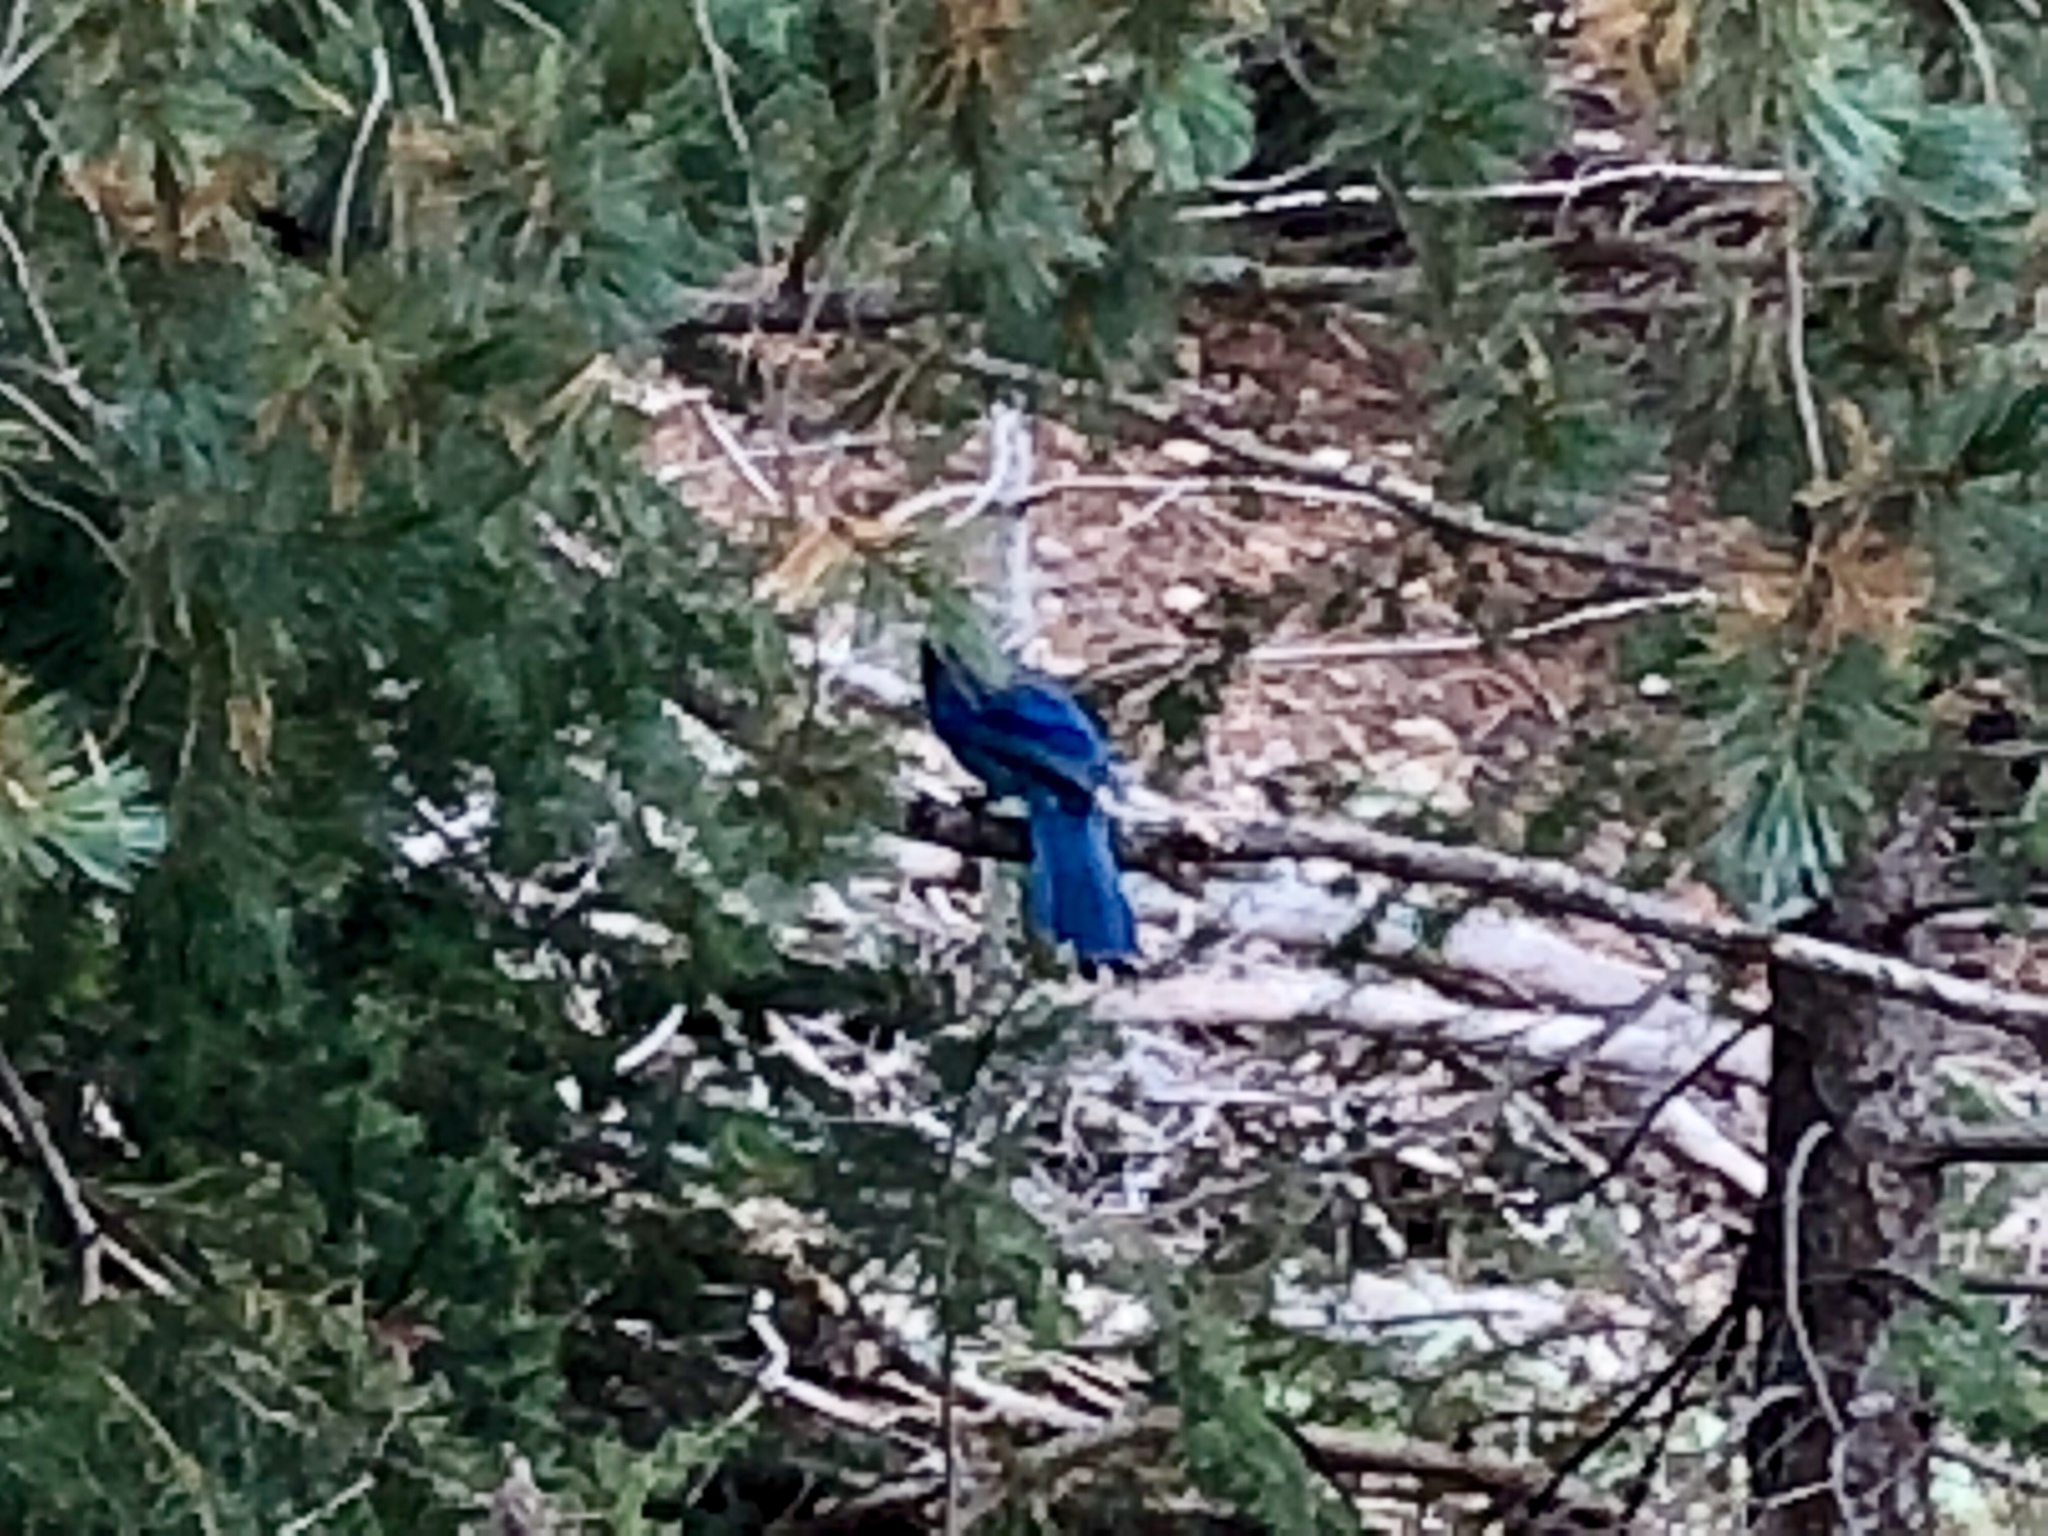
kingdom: Animalia
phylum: Chordata
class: Aves
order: Passeriformes
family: Corvidae
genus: Cyanocitta
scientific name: Cyanocitta stelleri
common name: Steller's jay
